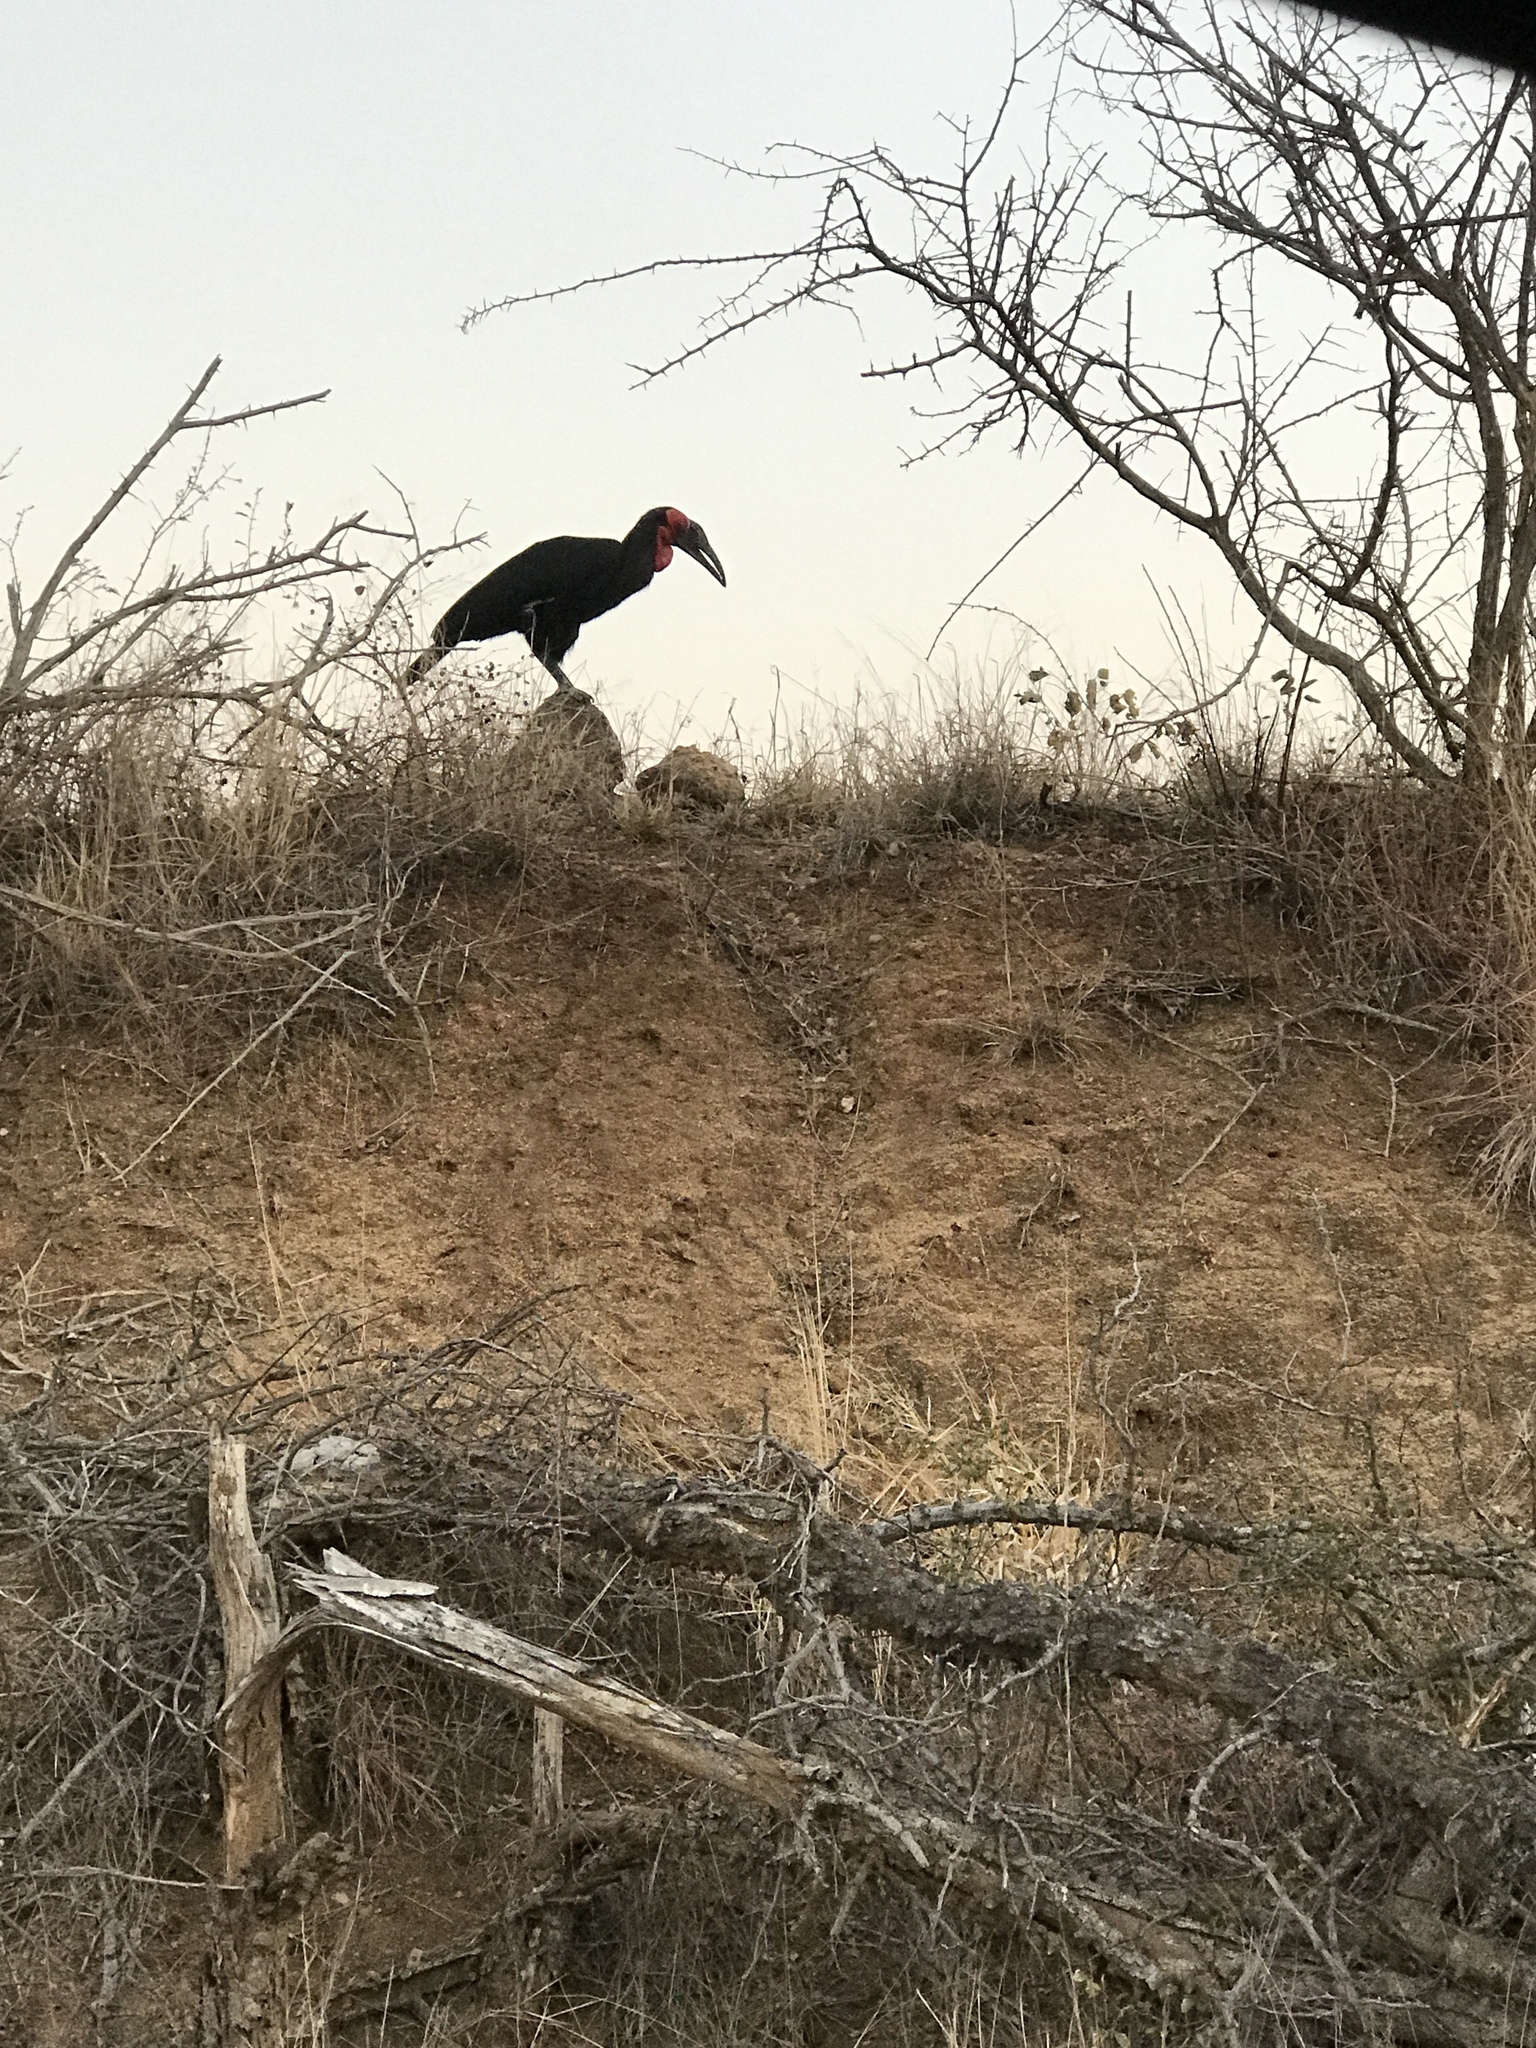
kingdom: Animalia
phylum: Chordata
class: Aves
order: Bucerotiformes
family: Bucorvidae
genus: Bucorvus
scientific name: Bucorvus leadbeateri
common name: Southern ground-hornbill
